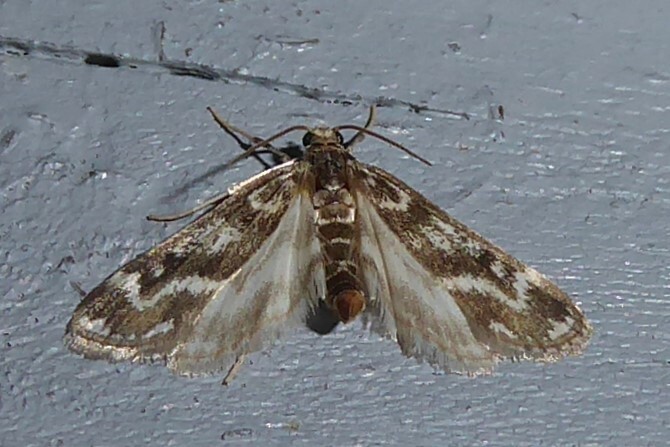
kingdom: Animalia
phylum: Arthropoda
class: Insecta
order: Lepidoptera
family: Crambidae
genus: Hygraula
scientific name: Hygraula nitens
